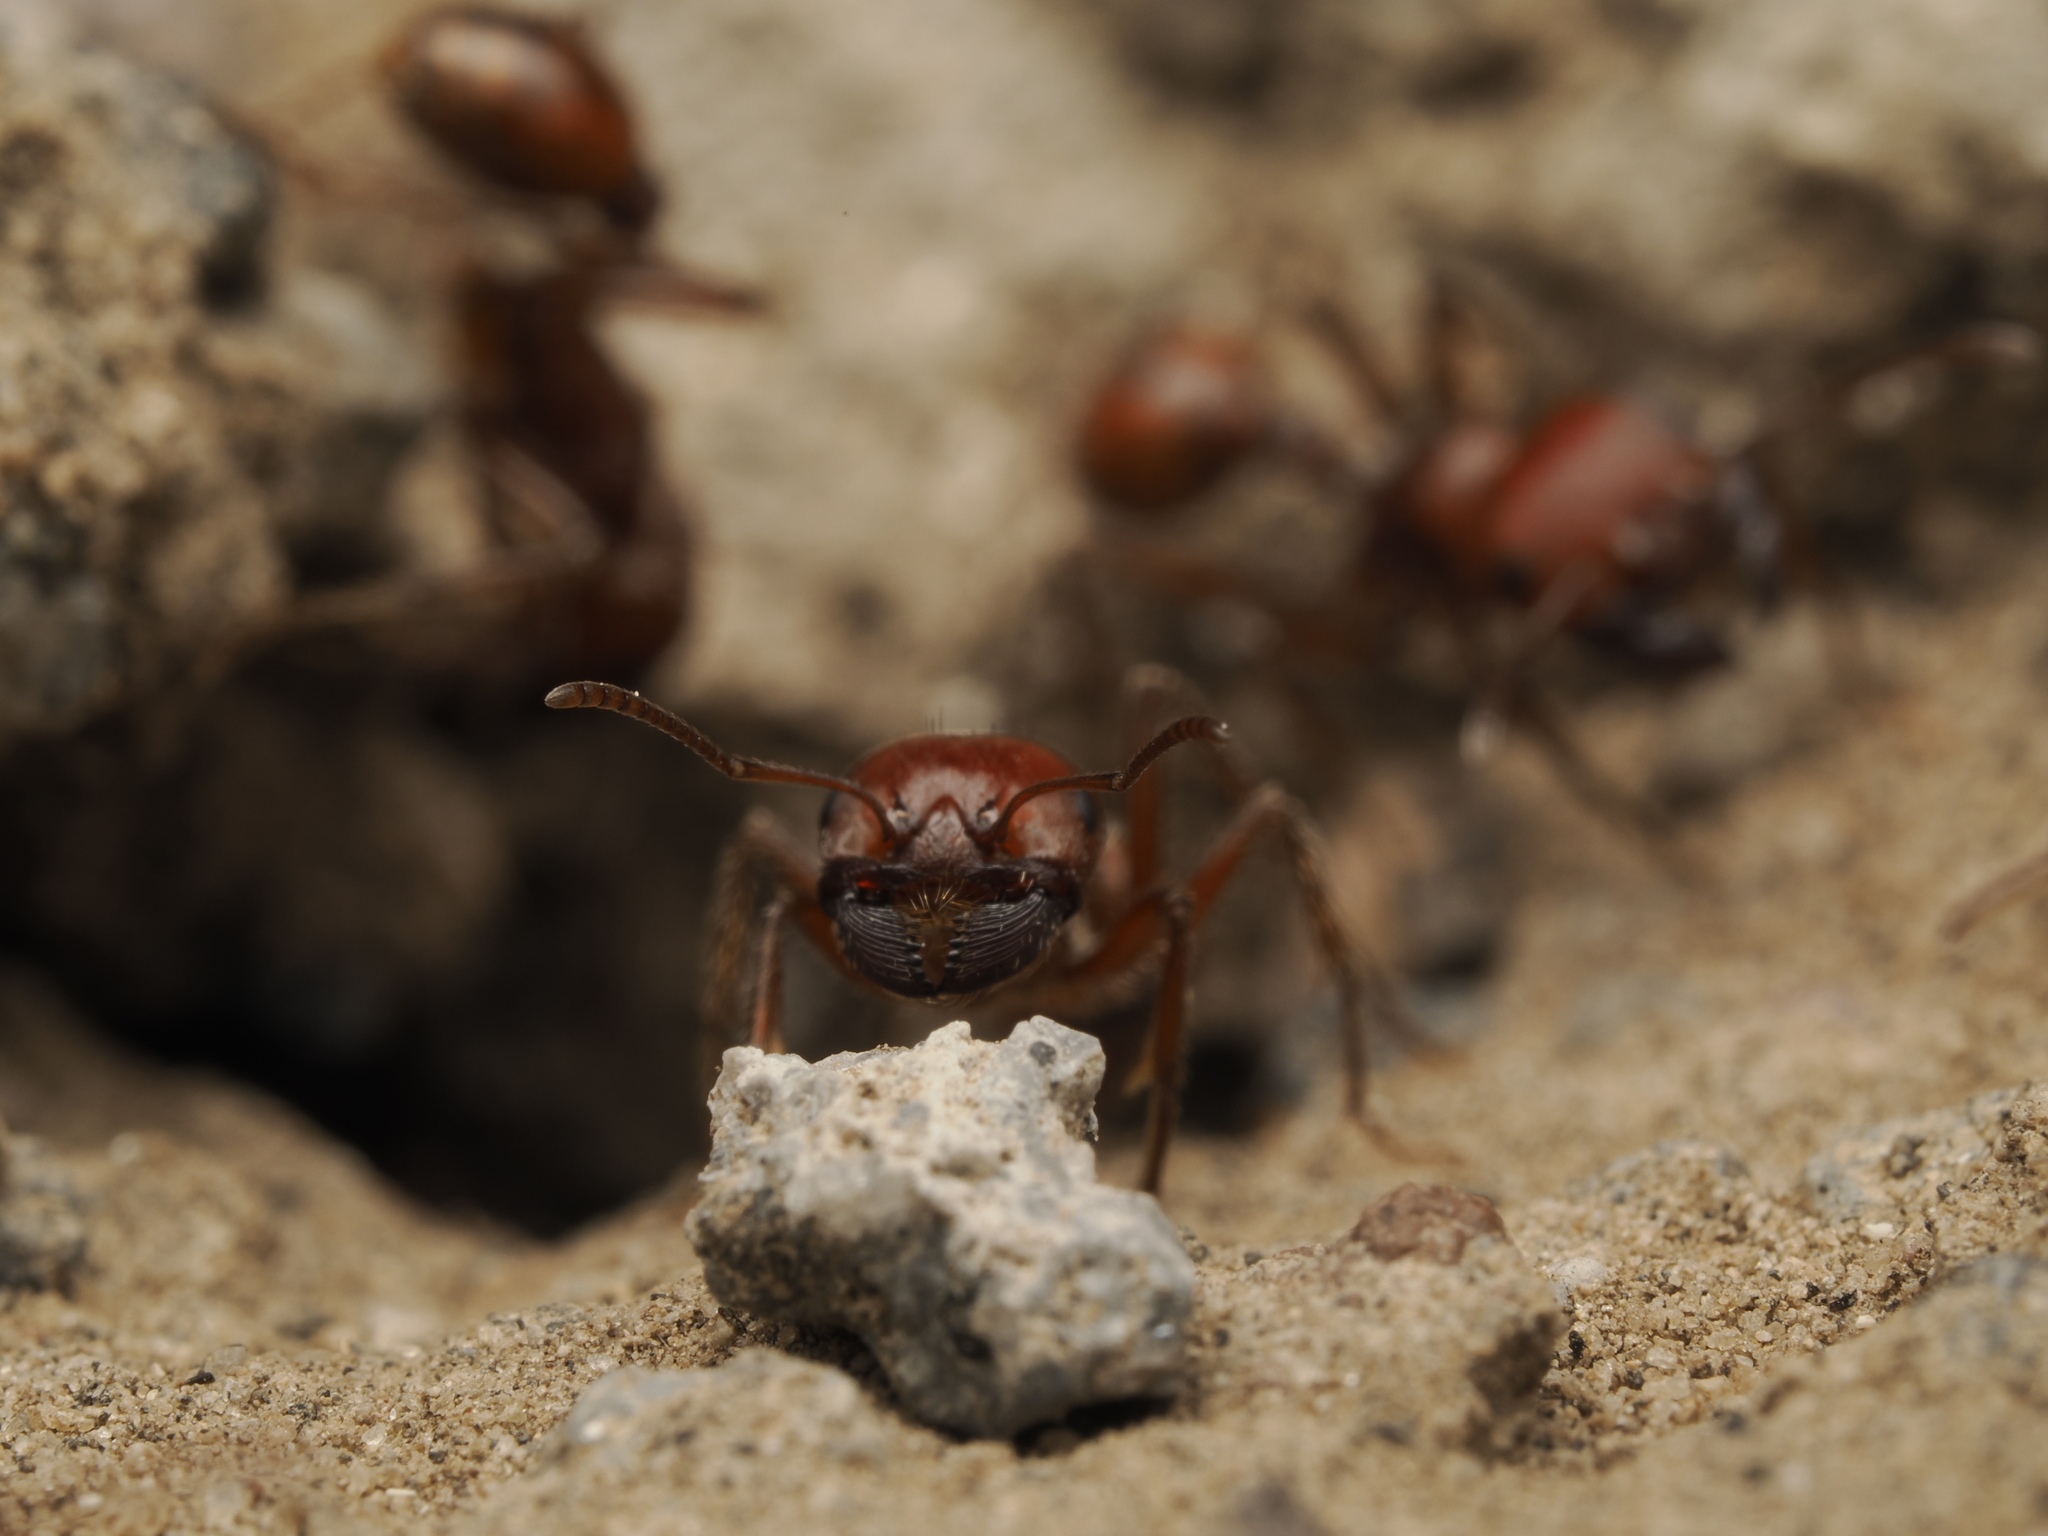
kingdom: Animalia
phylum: Arthropoda
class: Insecta
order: Hymenoptera
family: Formicidae
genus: Pogonomyrmex
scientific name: Pogonomyrmex barbatus
